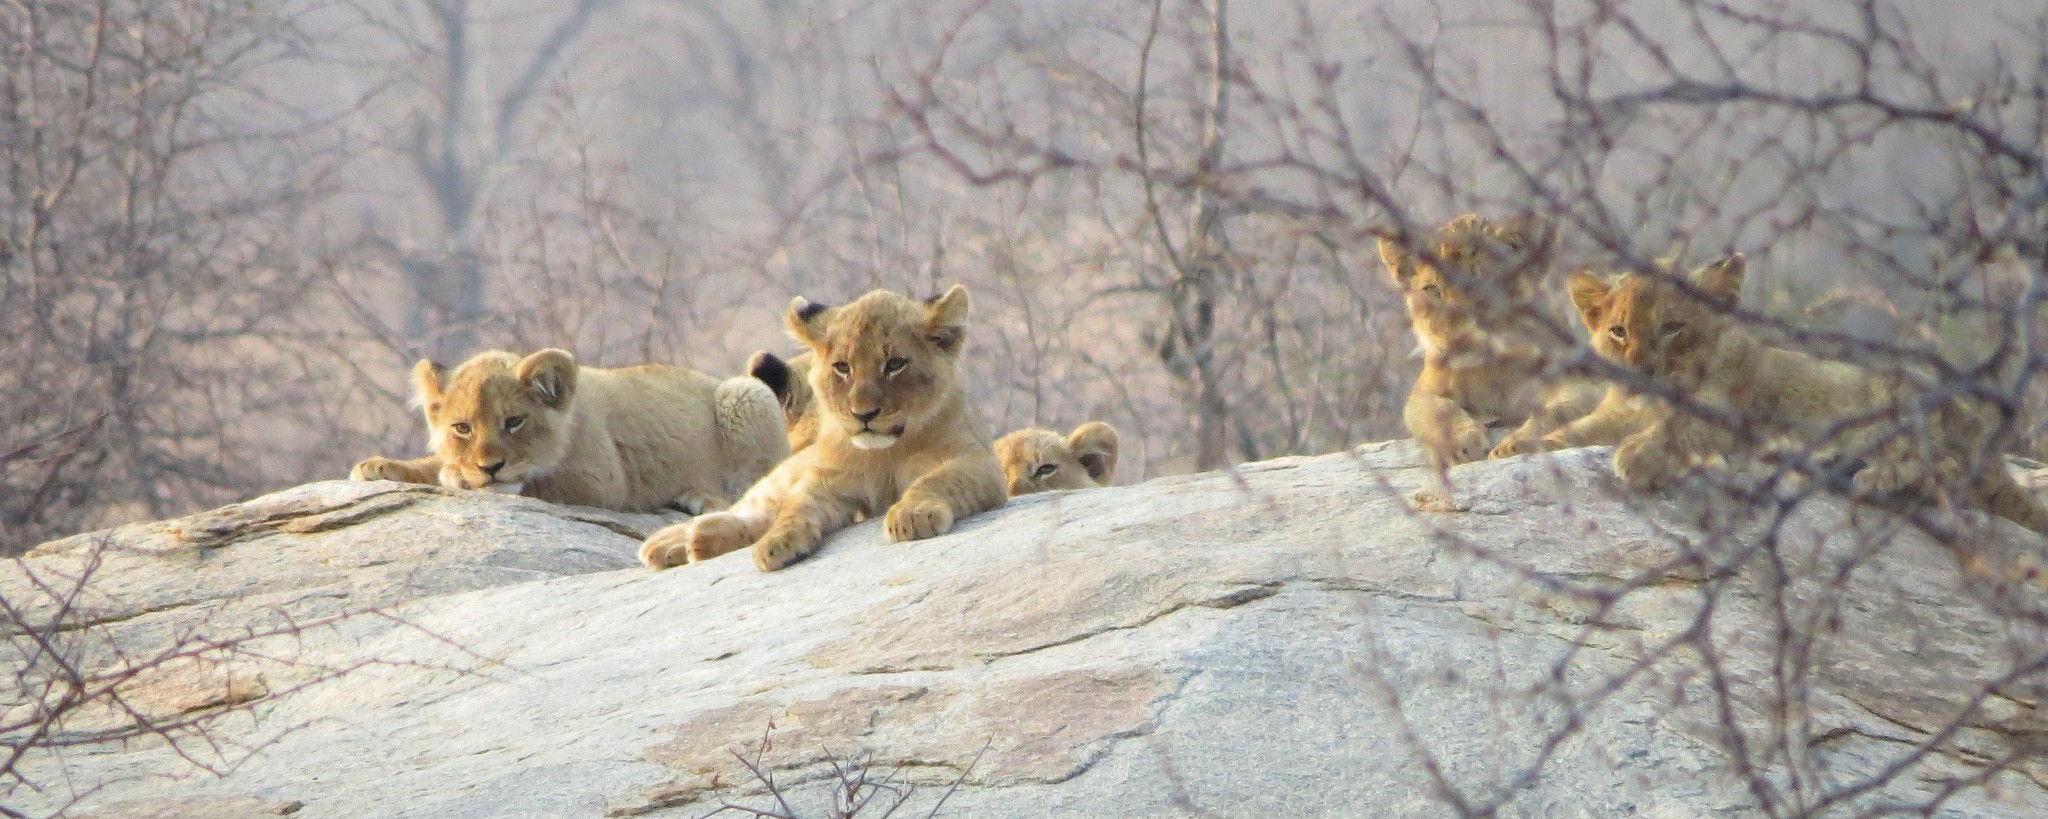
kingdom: Animalia
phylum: Chordata
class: Mammalia
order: Carnivora
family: Felidae
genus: Panthera
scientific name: Panthera leo
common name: Lion
